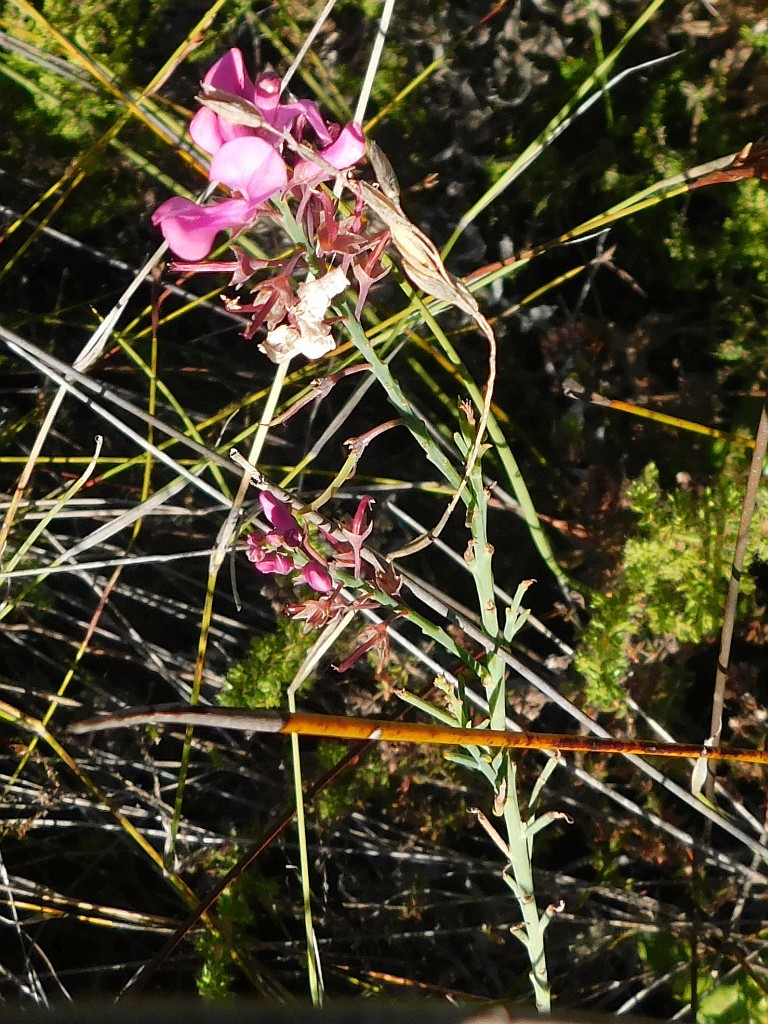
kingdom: Plantae
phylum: Tracheophyta
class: Magnoliopsida
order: Fabales
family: Fabaceae
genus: Indigofera
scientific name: Indigofera filifolia
